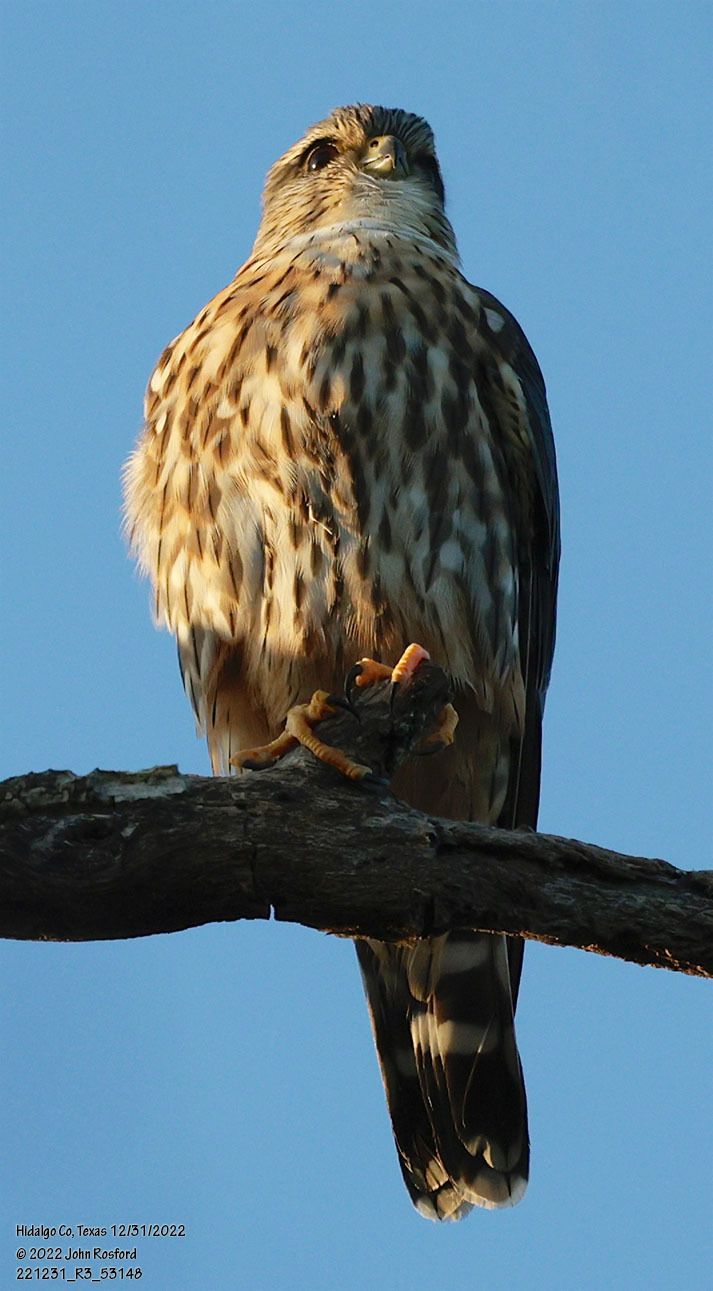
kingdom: Animalia
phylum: Chordata
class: Aves
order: Falconiformes
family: Falconidae
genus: Falco
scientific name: Falco columbarius
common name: Merlin
